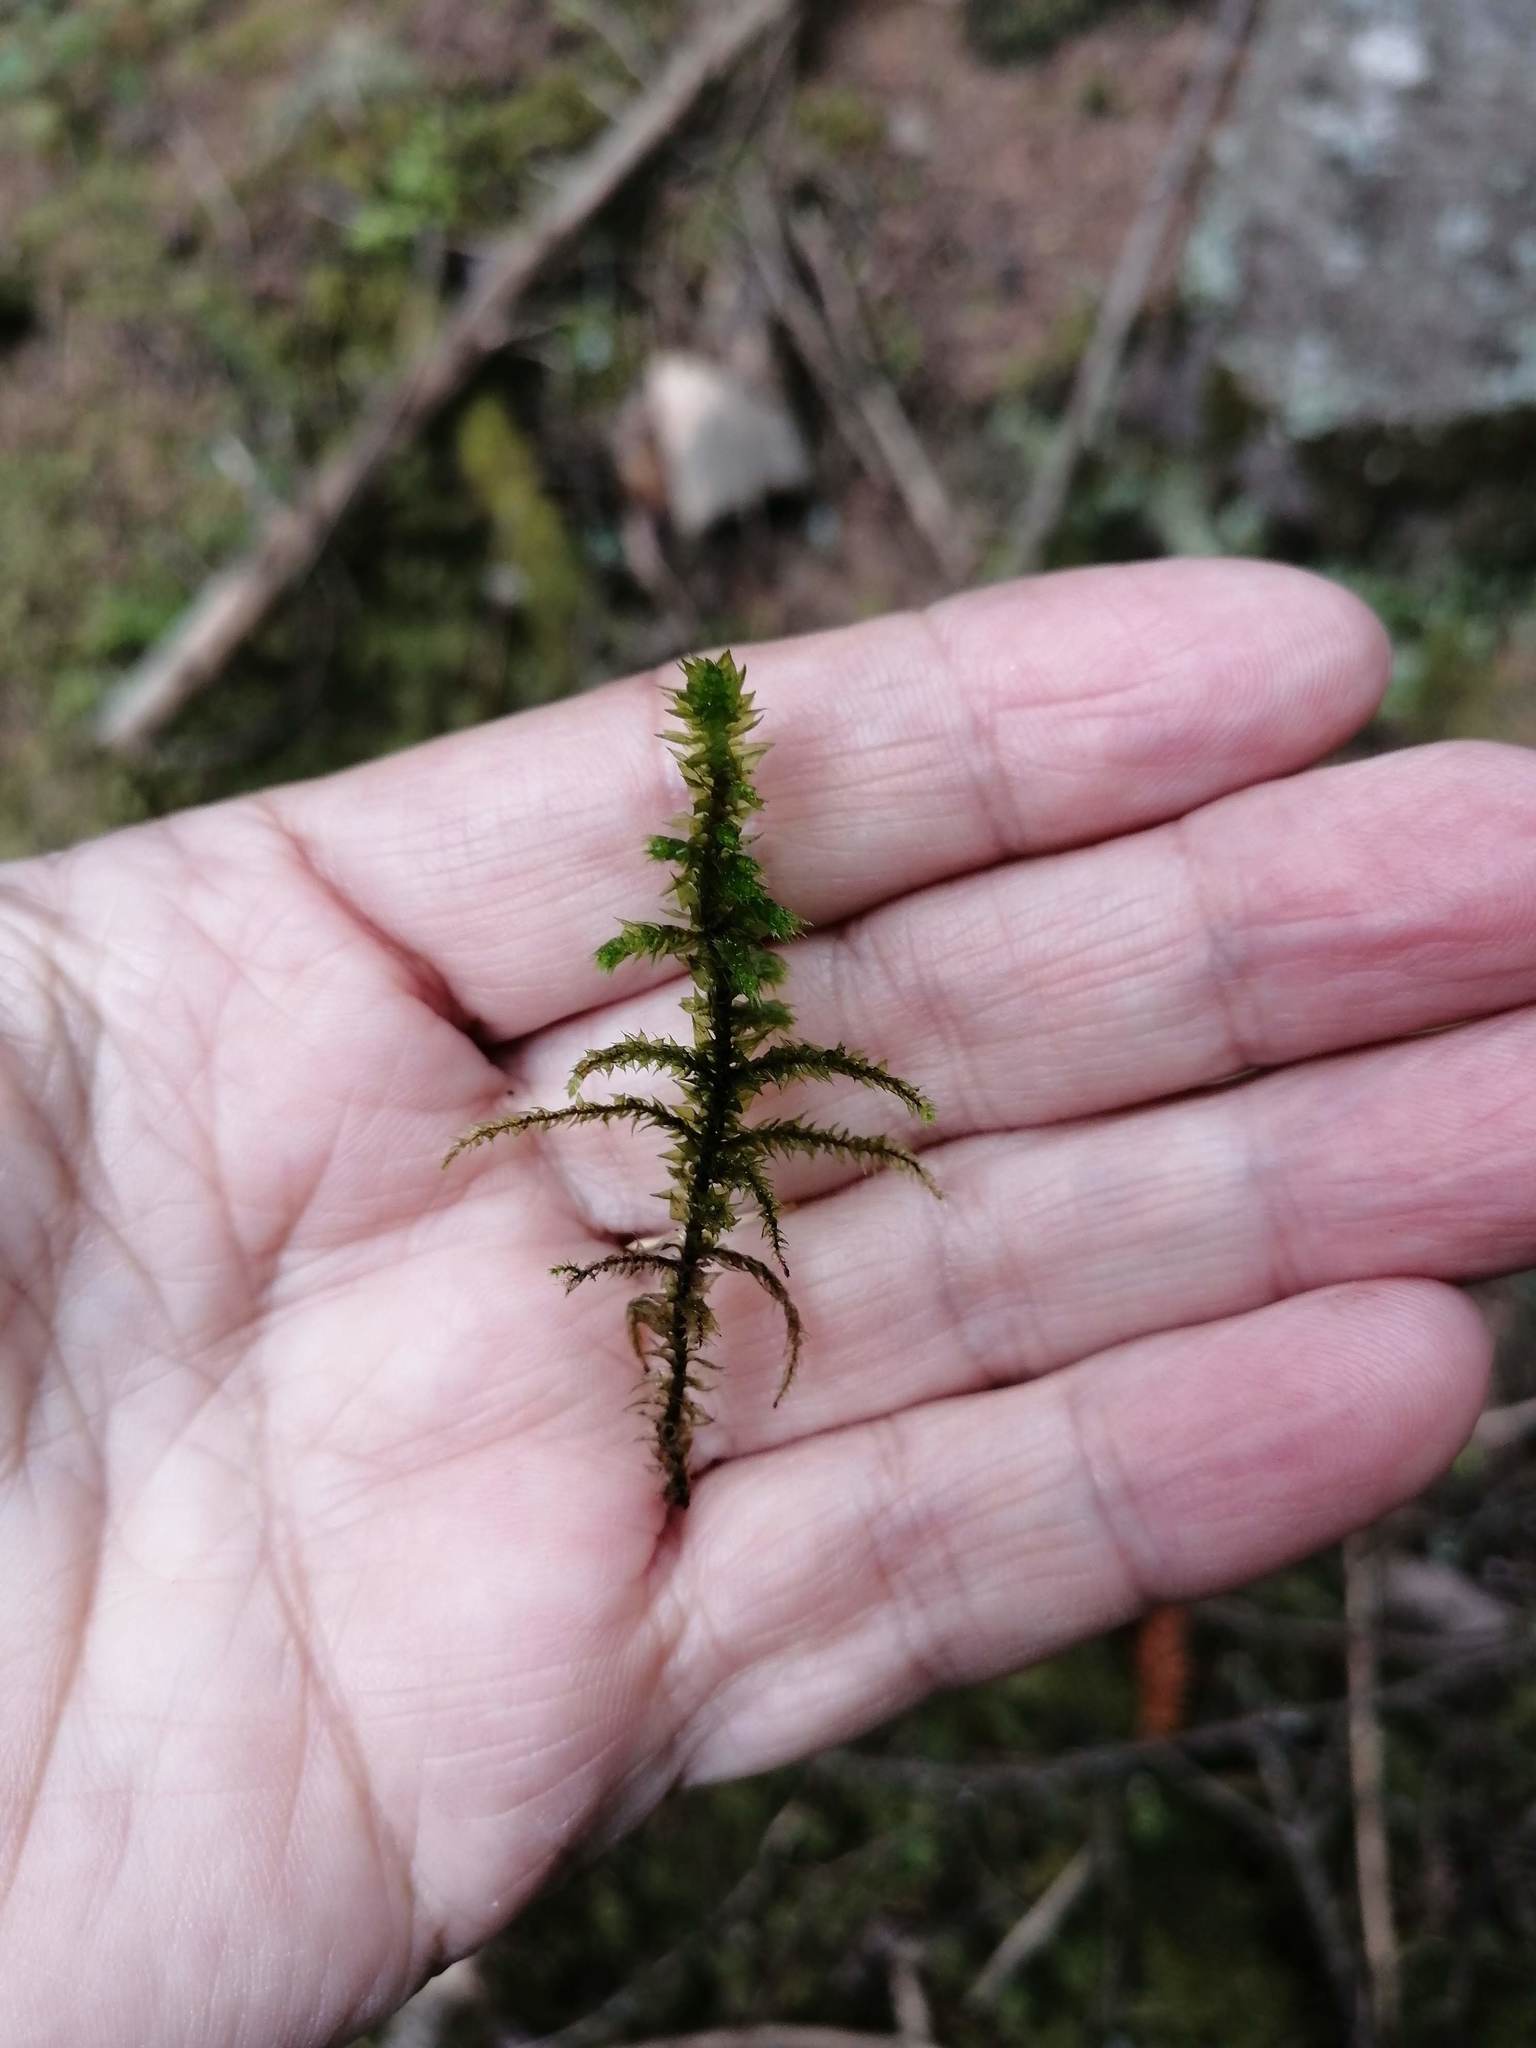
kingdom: Plantae
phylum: Bryophyta
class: Bryopsida
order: Hypnales
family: Hylocomiaceae
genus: Hylocomiadelphus
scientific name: Hylocomiadelphus triquetrus
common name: Rough goose neck moss
